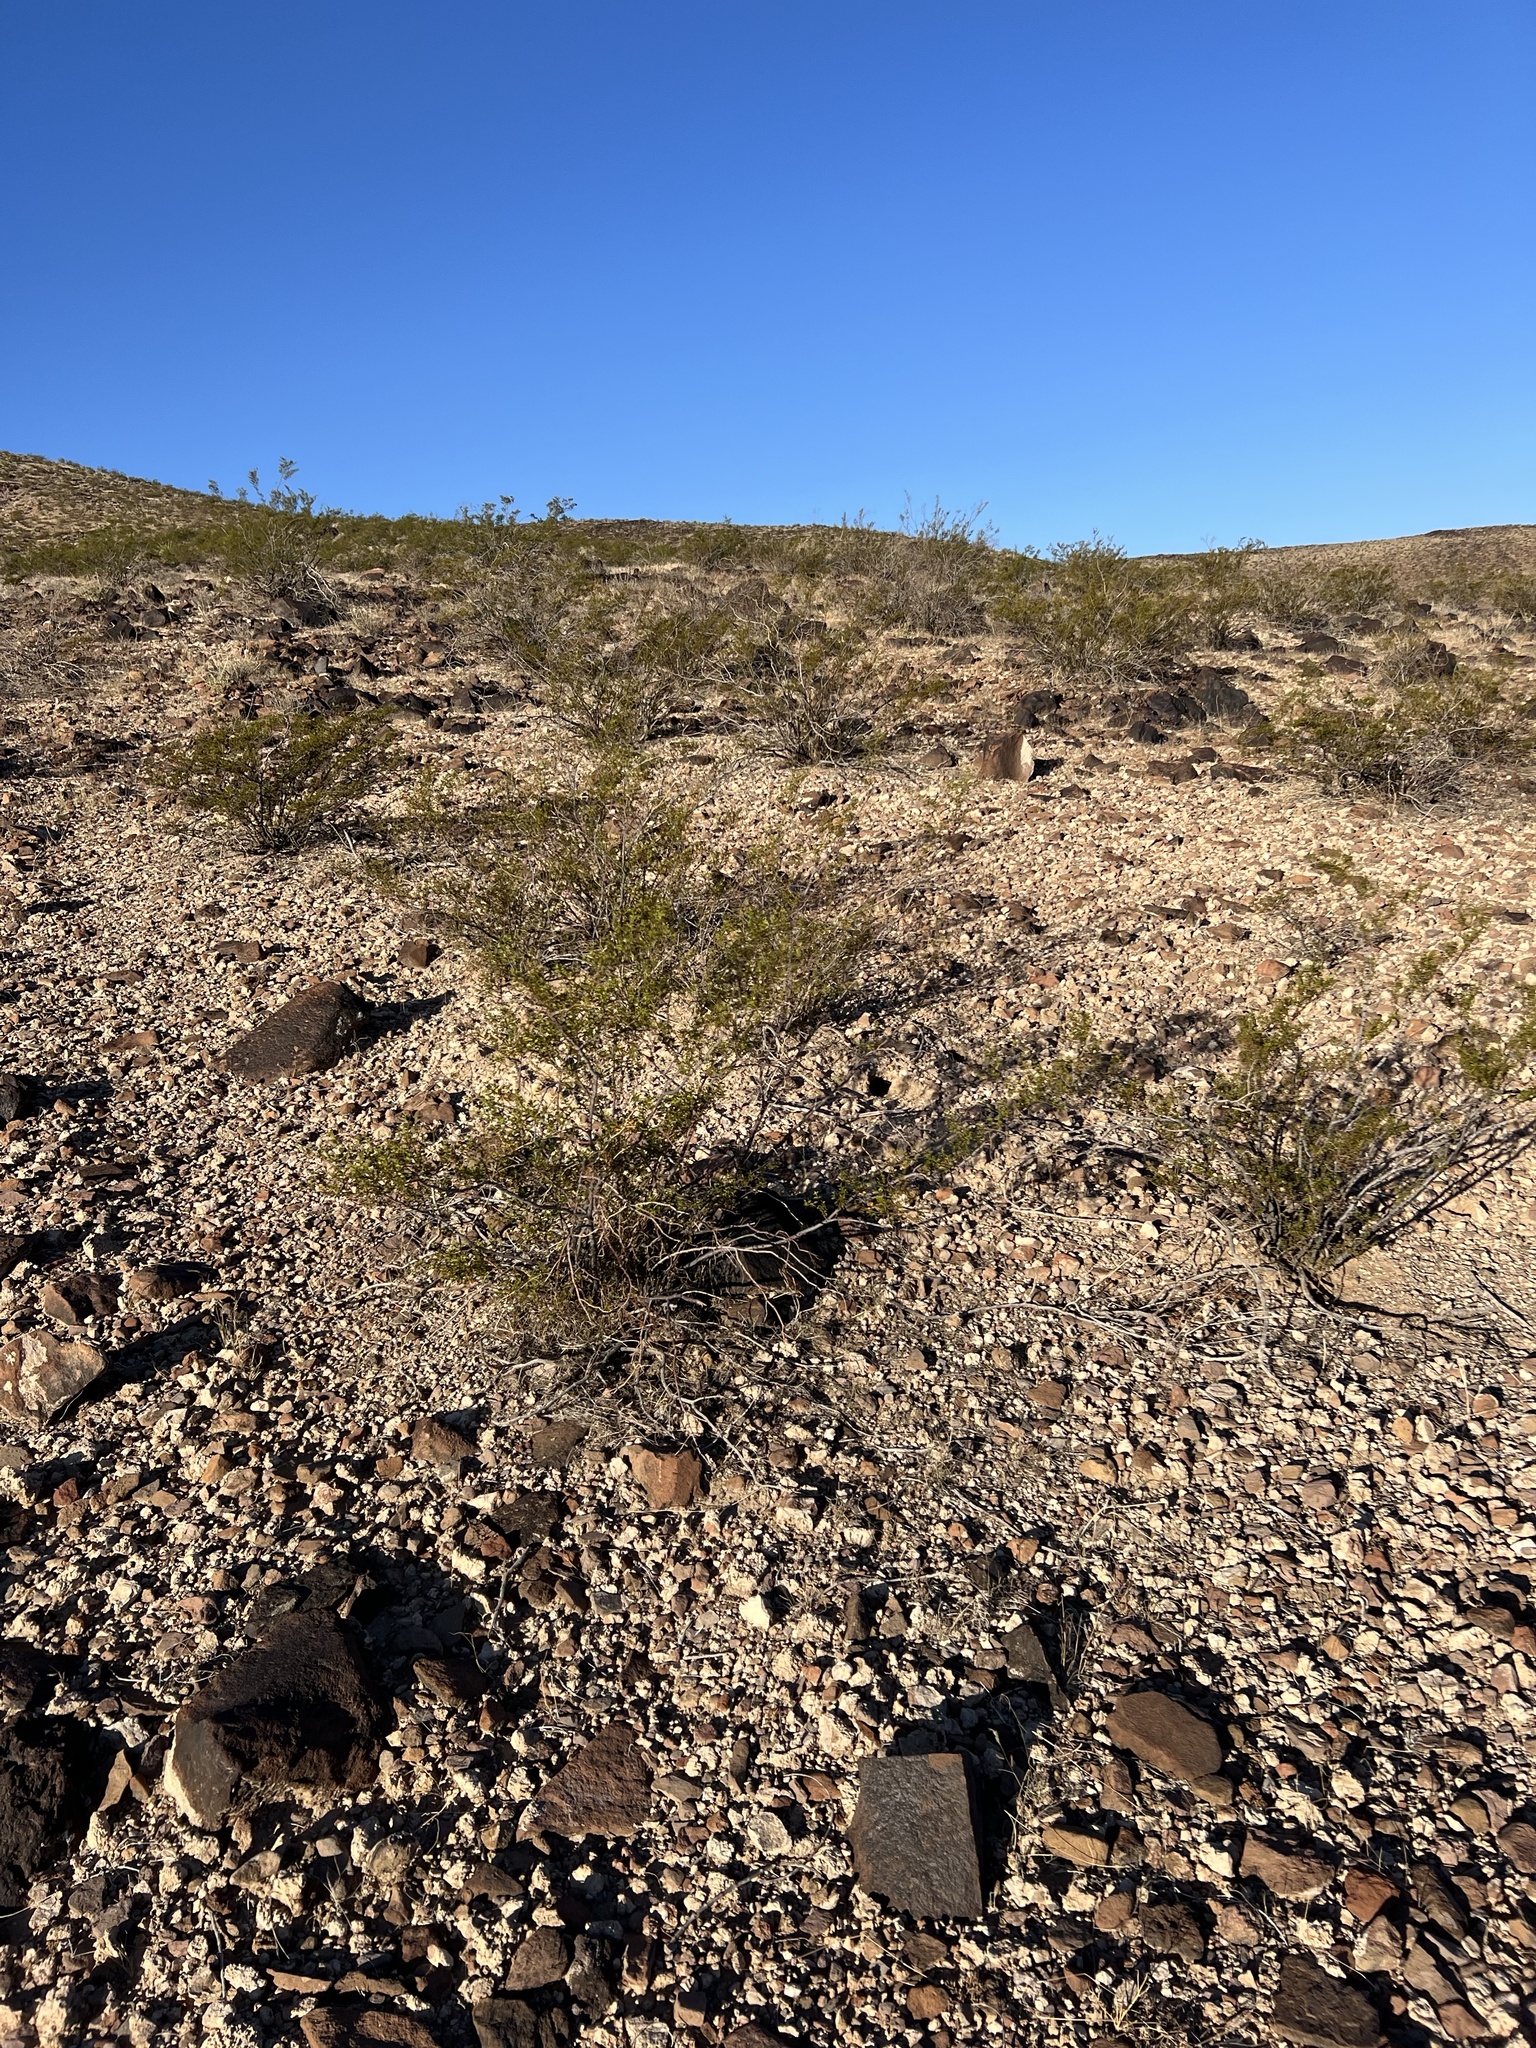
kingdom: Plantae
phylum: Tracheophyta
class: Magnoliopsida
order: Zygophyllales
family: Zygophyllaceae
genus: Larrea
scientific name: Larrea tridentata
